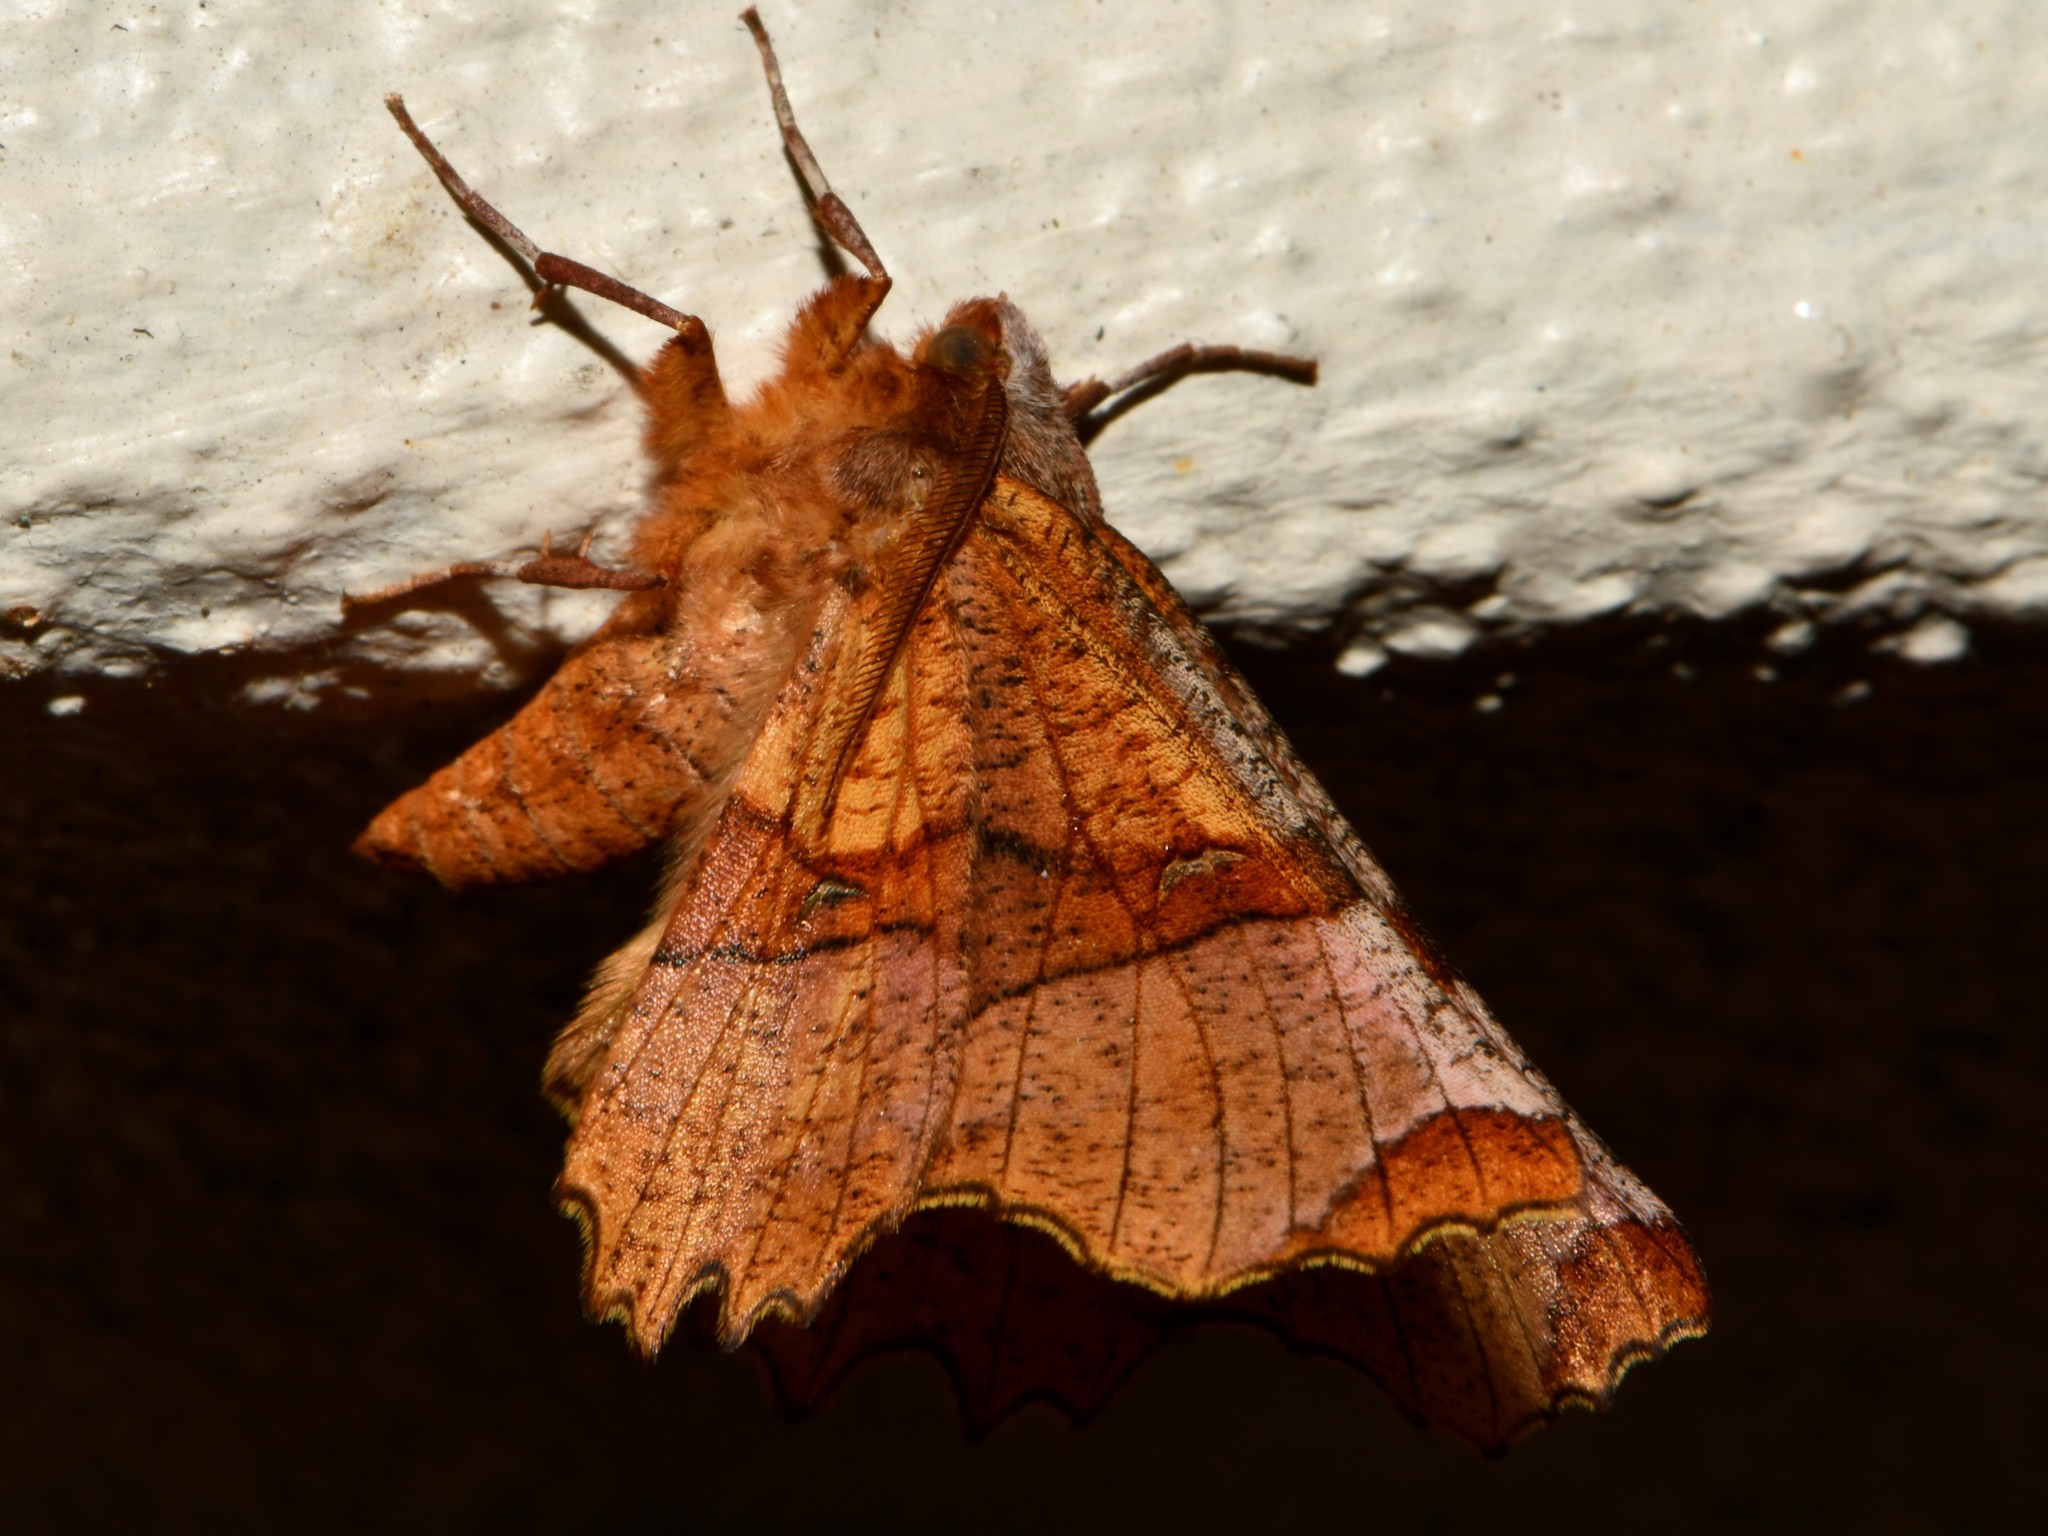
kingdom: Animalia
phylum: Arthropoda
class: Insecta
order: Lepidoptera
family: Geometridae
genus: Selenia
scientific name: Selenia lunularia
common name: Lunar thorn
